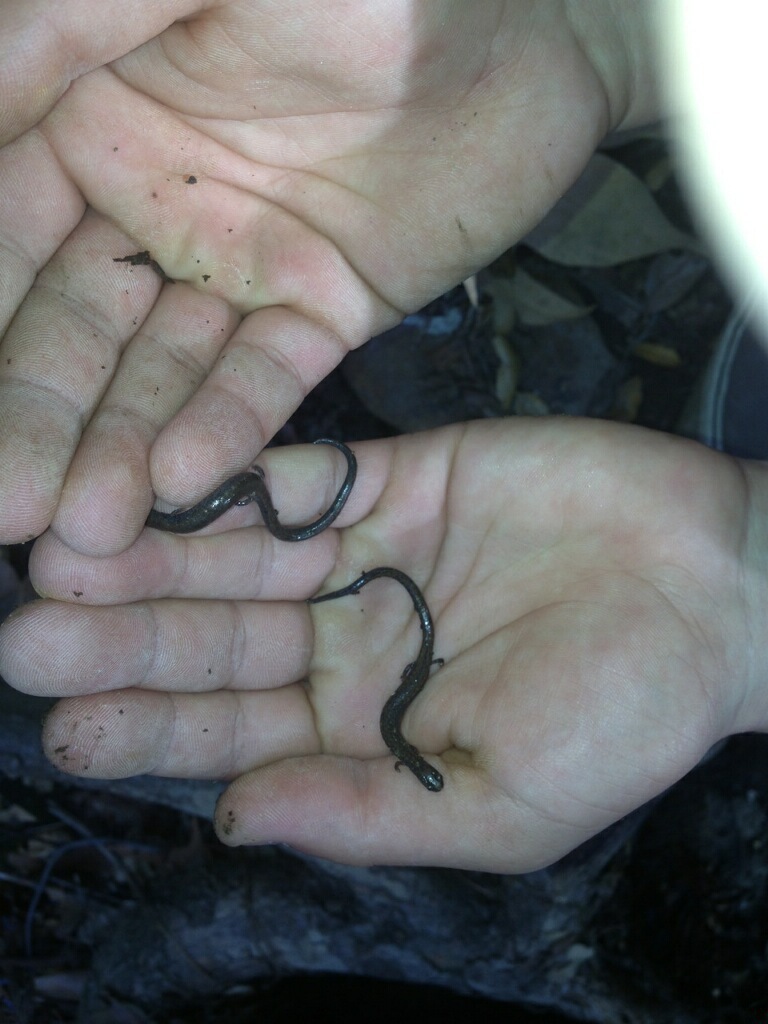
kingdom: Animalia
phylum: Chordata
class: Amphibia
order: Caudata
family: Plethodontidae
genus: Batrachoseps
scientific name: Batrachoseps nigriventris
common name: Black-bellied slender salamander
